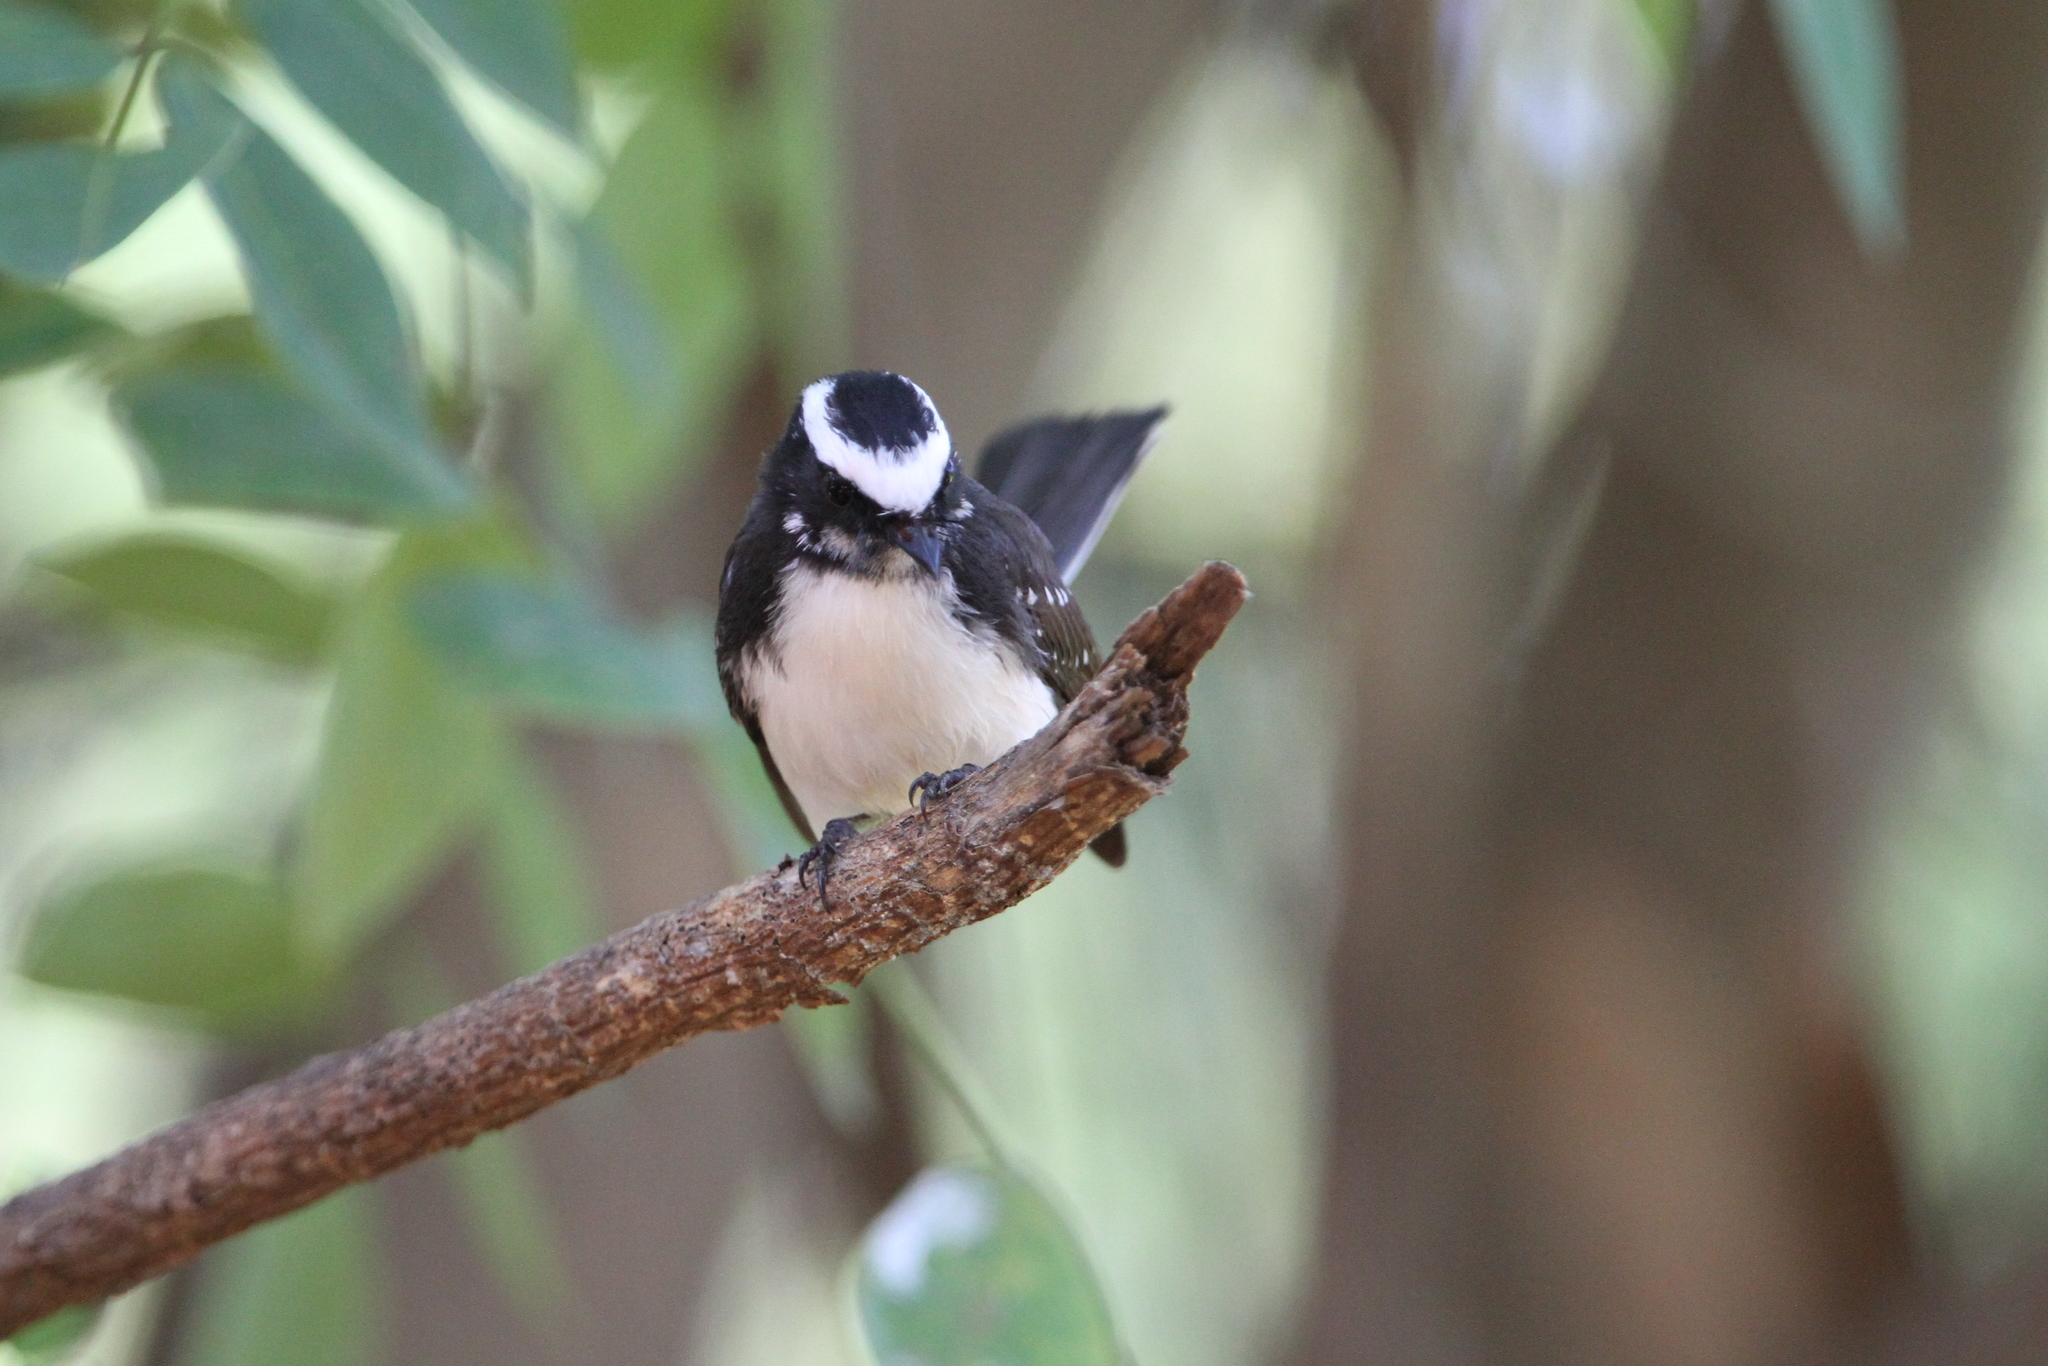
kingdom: Animalia
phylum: Chordata
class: Aves
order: Passeriformes
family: Rhipiduridae
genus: Rhipidura
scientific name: Rhipidura aureola
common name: White-browed fantail
